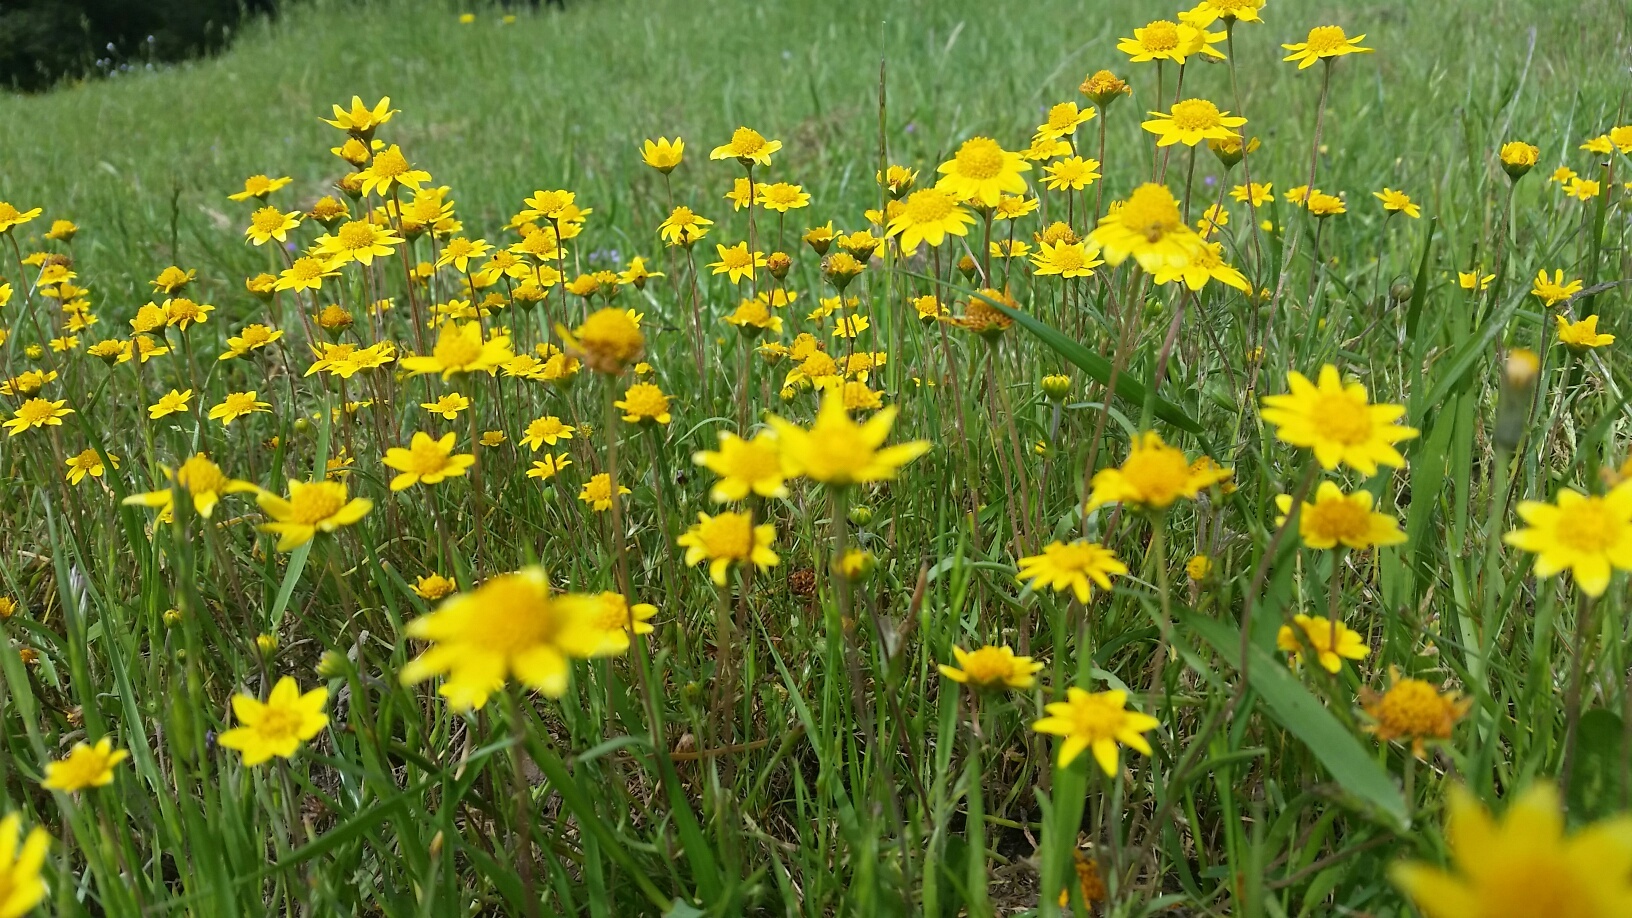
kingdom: Plantae
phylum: Tracheophyta
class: Magnoliopsida
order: Asterales
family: Asteraceae
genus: Lasthenia
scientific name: Lasthenia californica
